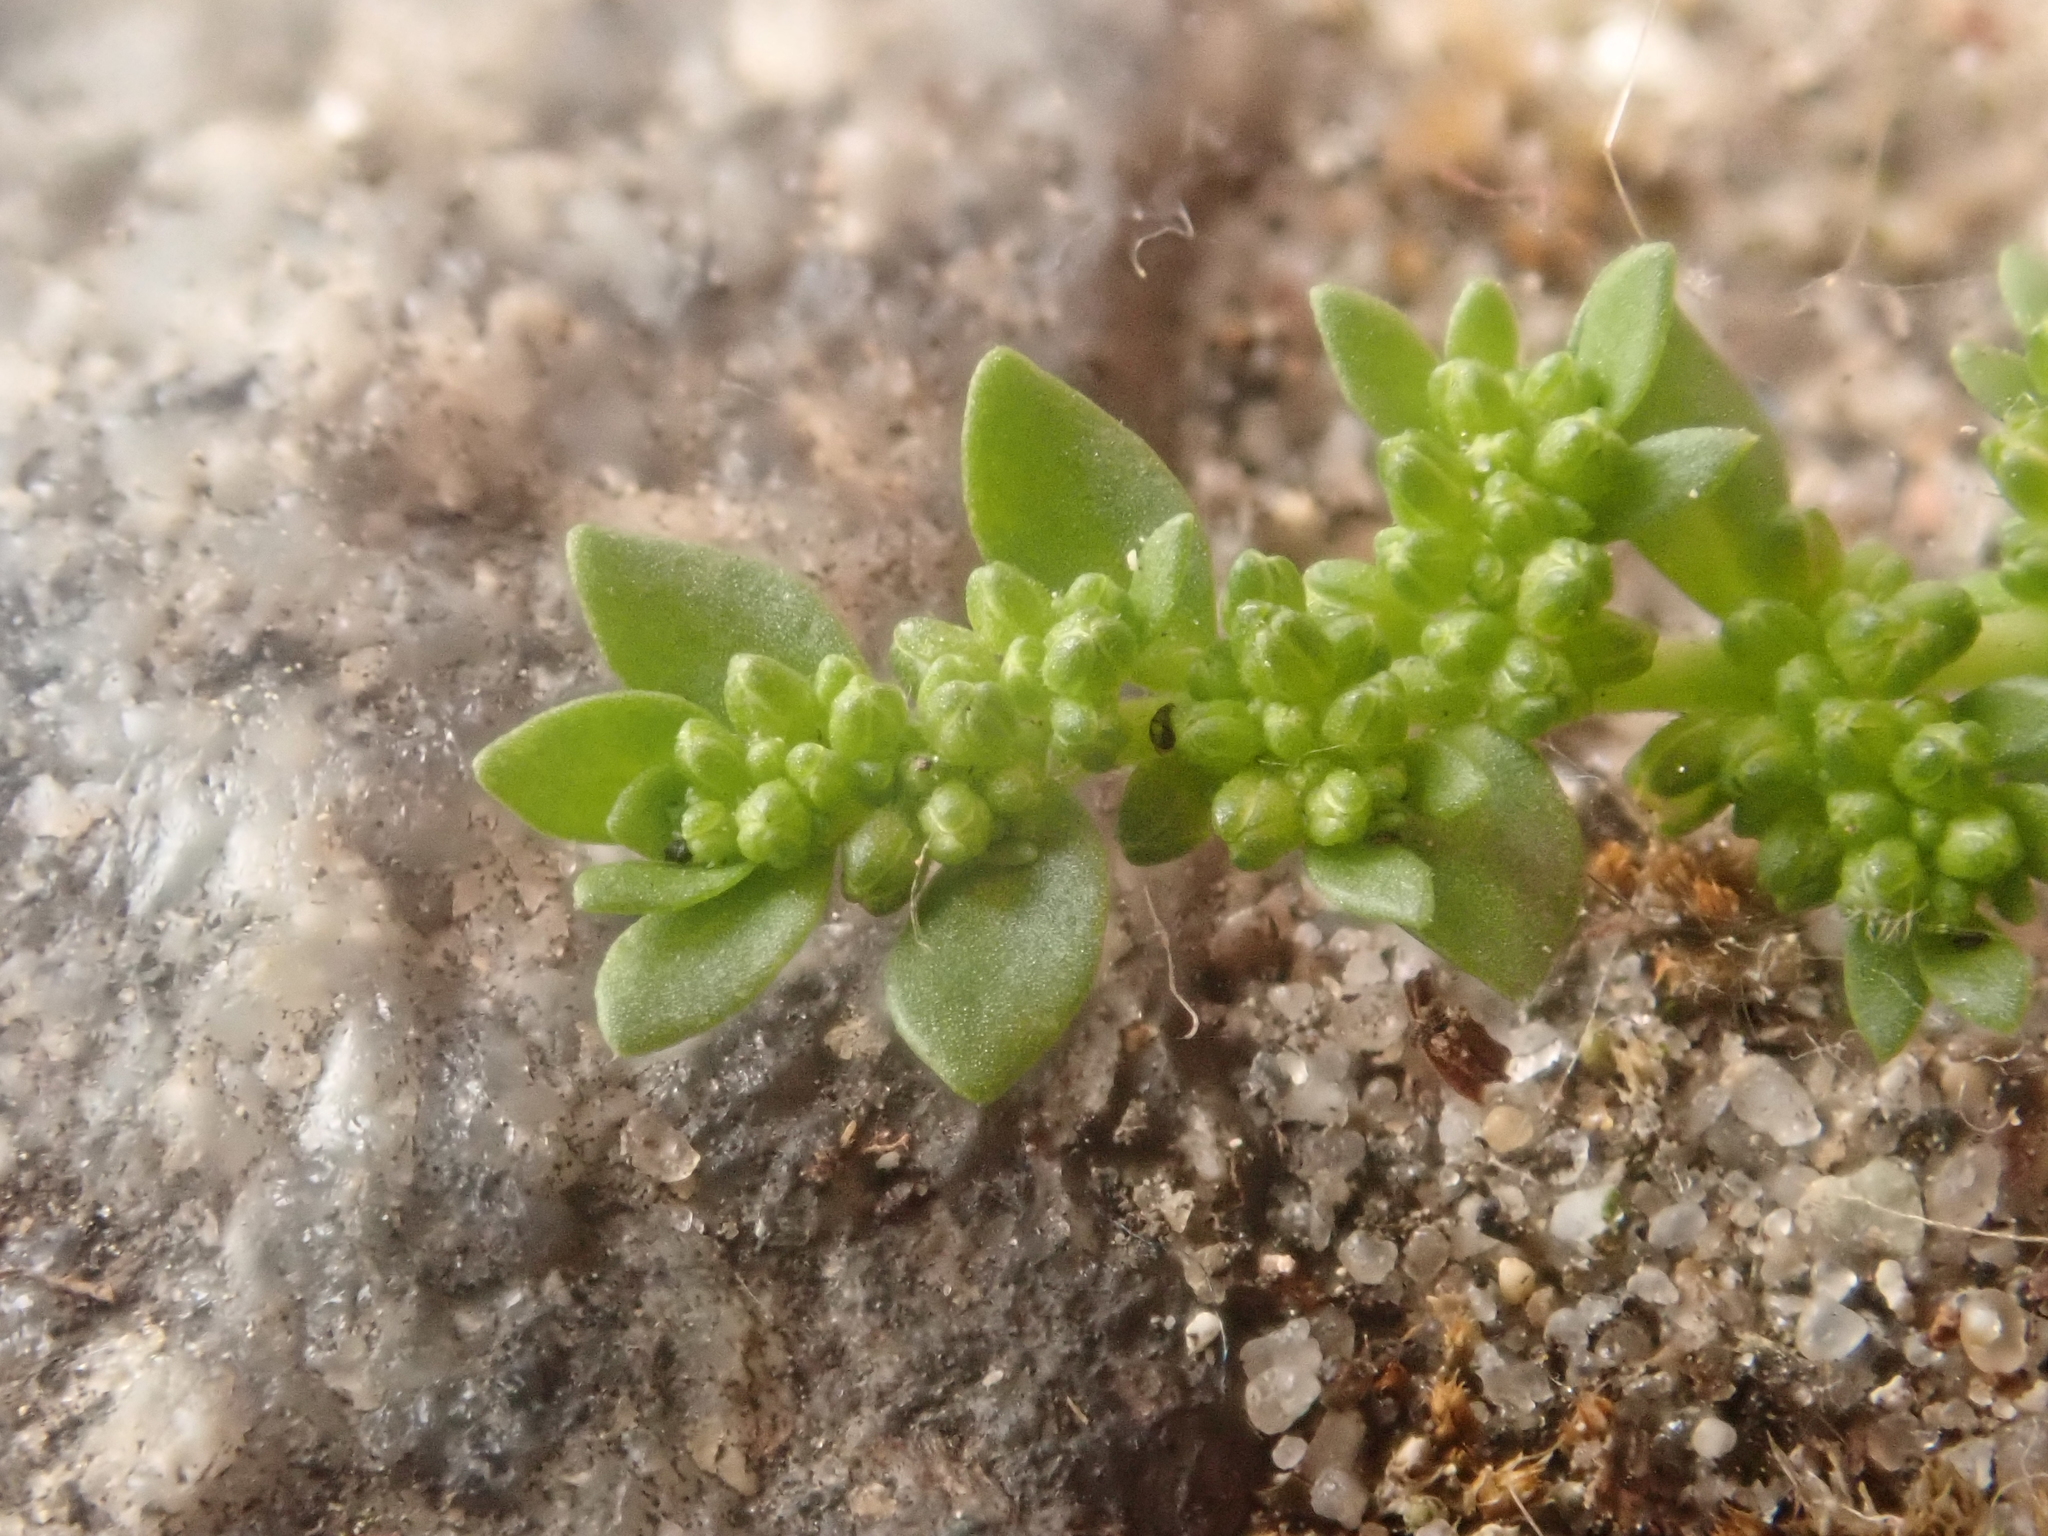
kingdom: Plantae
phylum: Tracheophyta
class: Magnoliopsida
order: Caryophyllales
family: Caryophyllaceae
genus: Herniaria
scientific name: Herniaria glabra
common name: Smooth rupturewort
